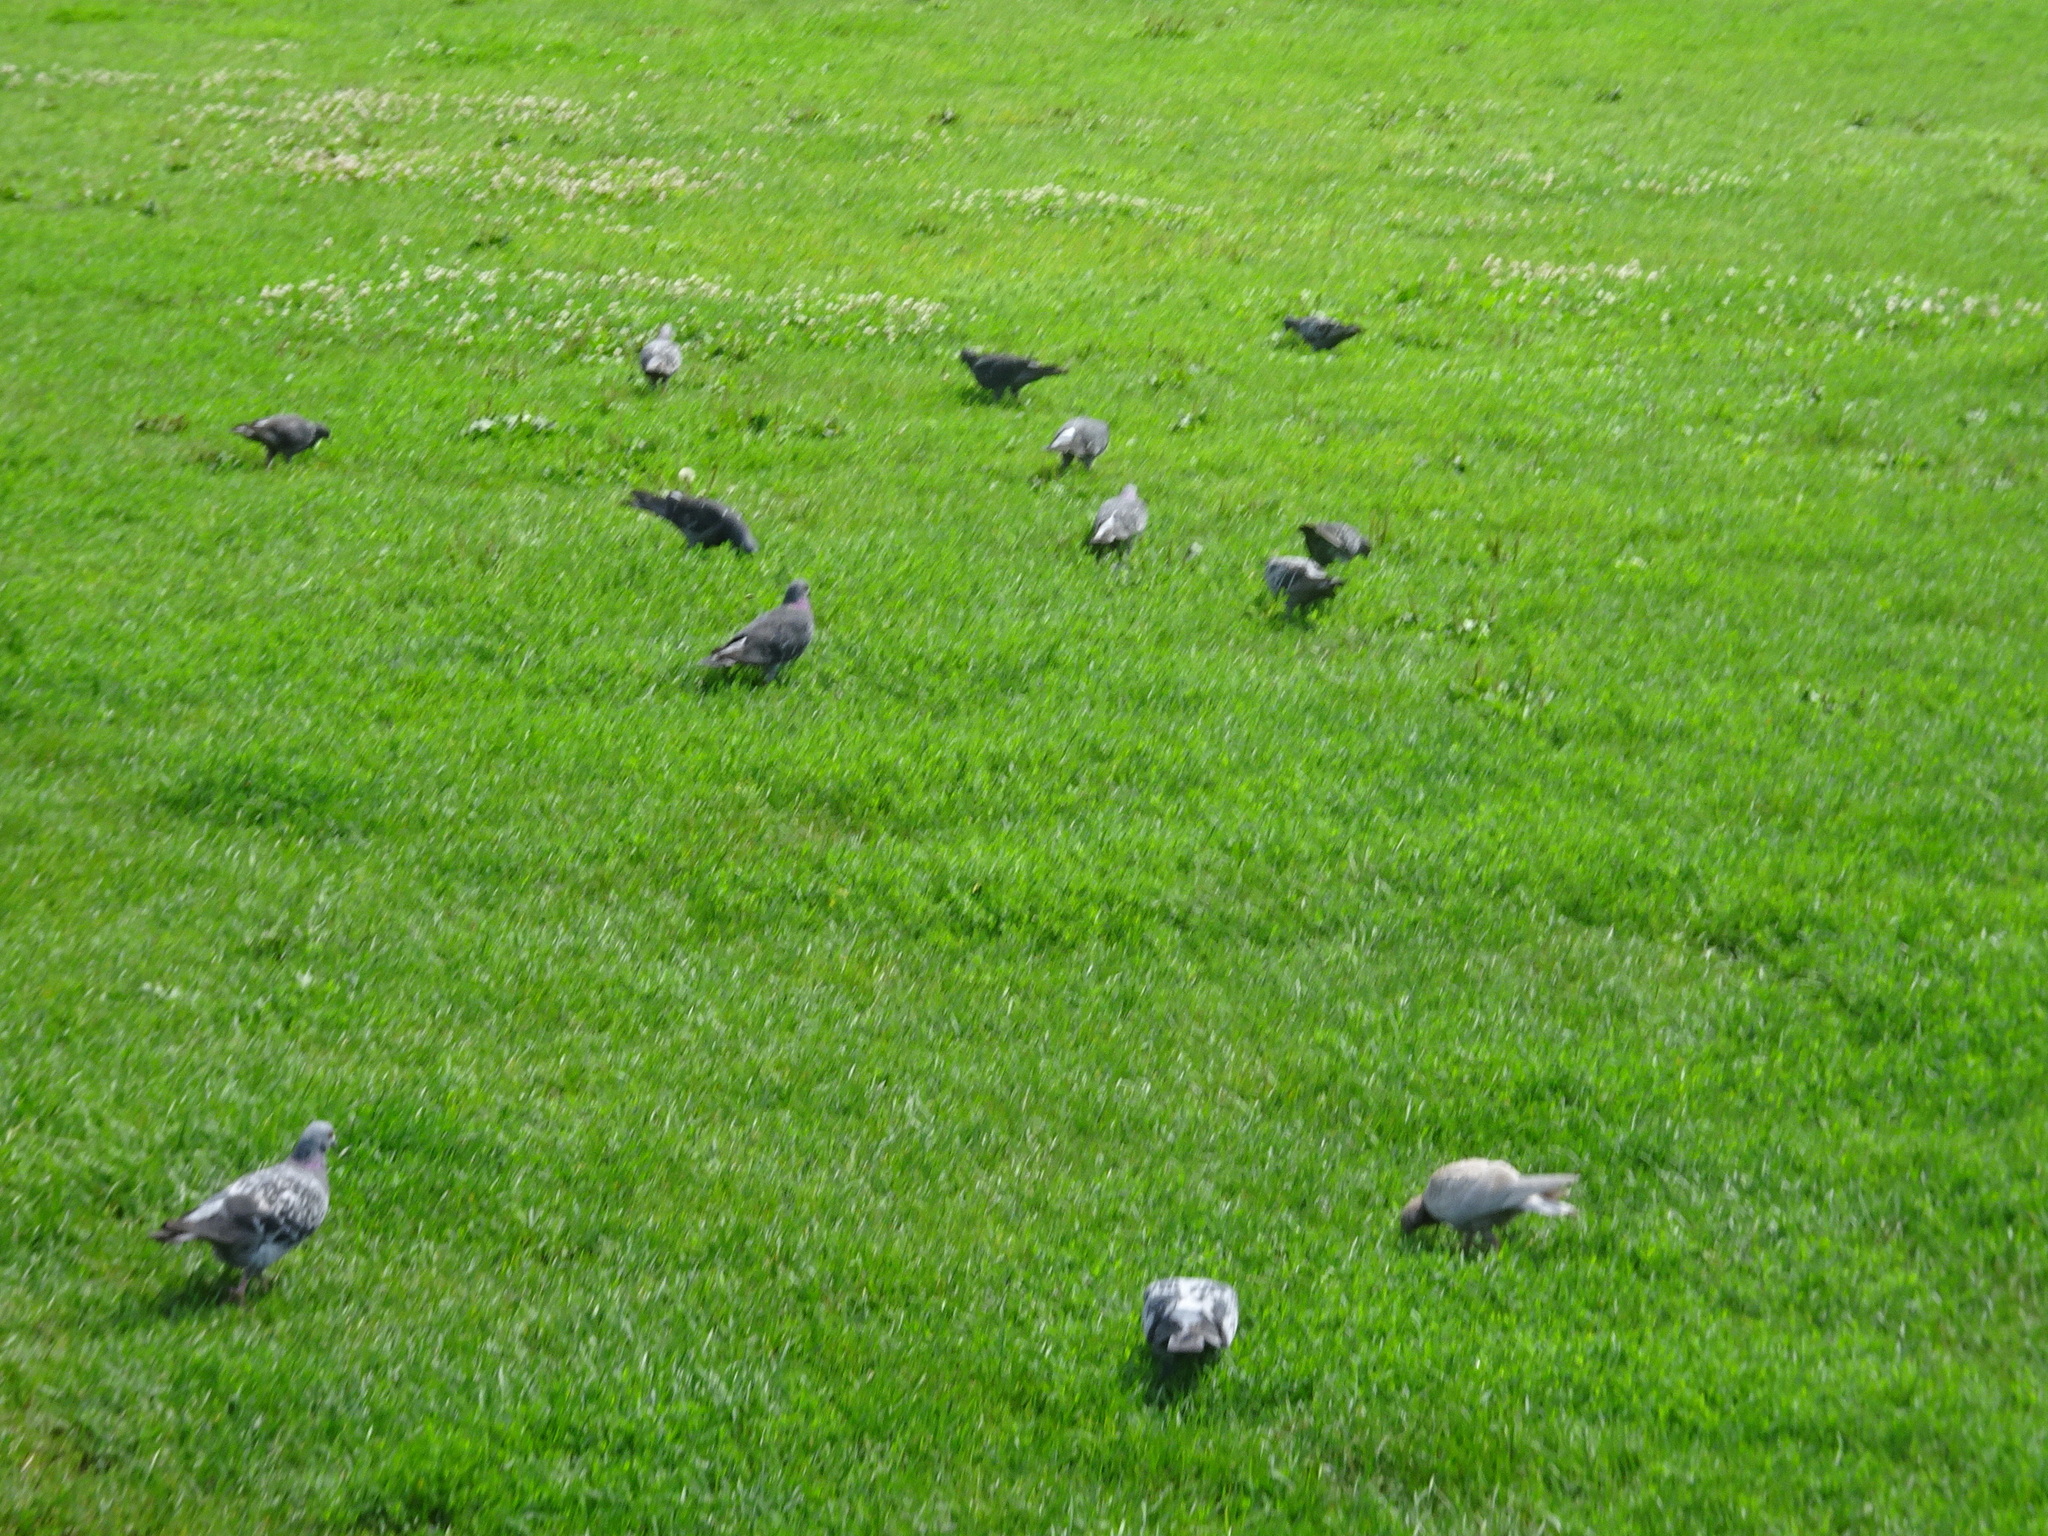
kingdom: Animalia
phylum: Chordata
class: Aves
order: Columbiformes
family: Columbidae
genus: Columba
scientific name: Columba livia
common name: Rock pigeon
